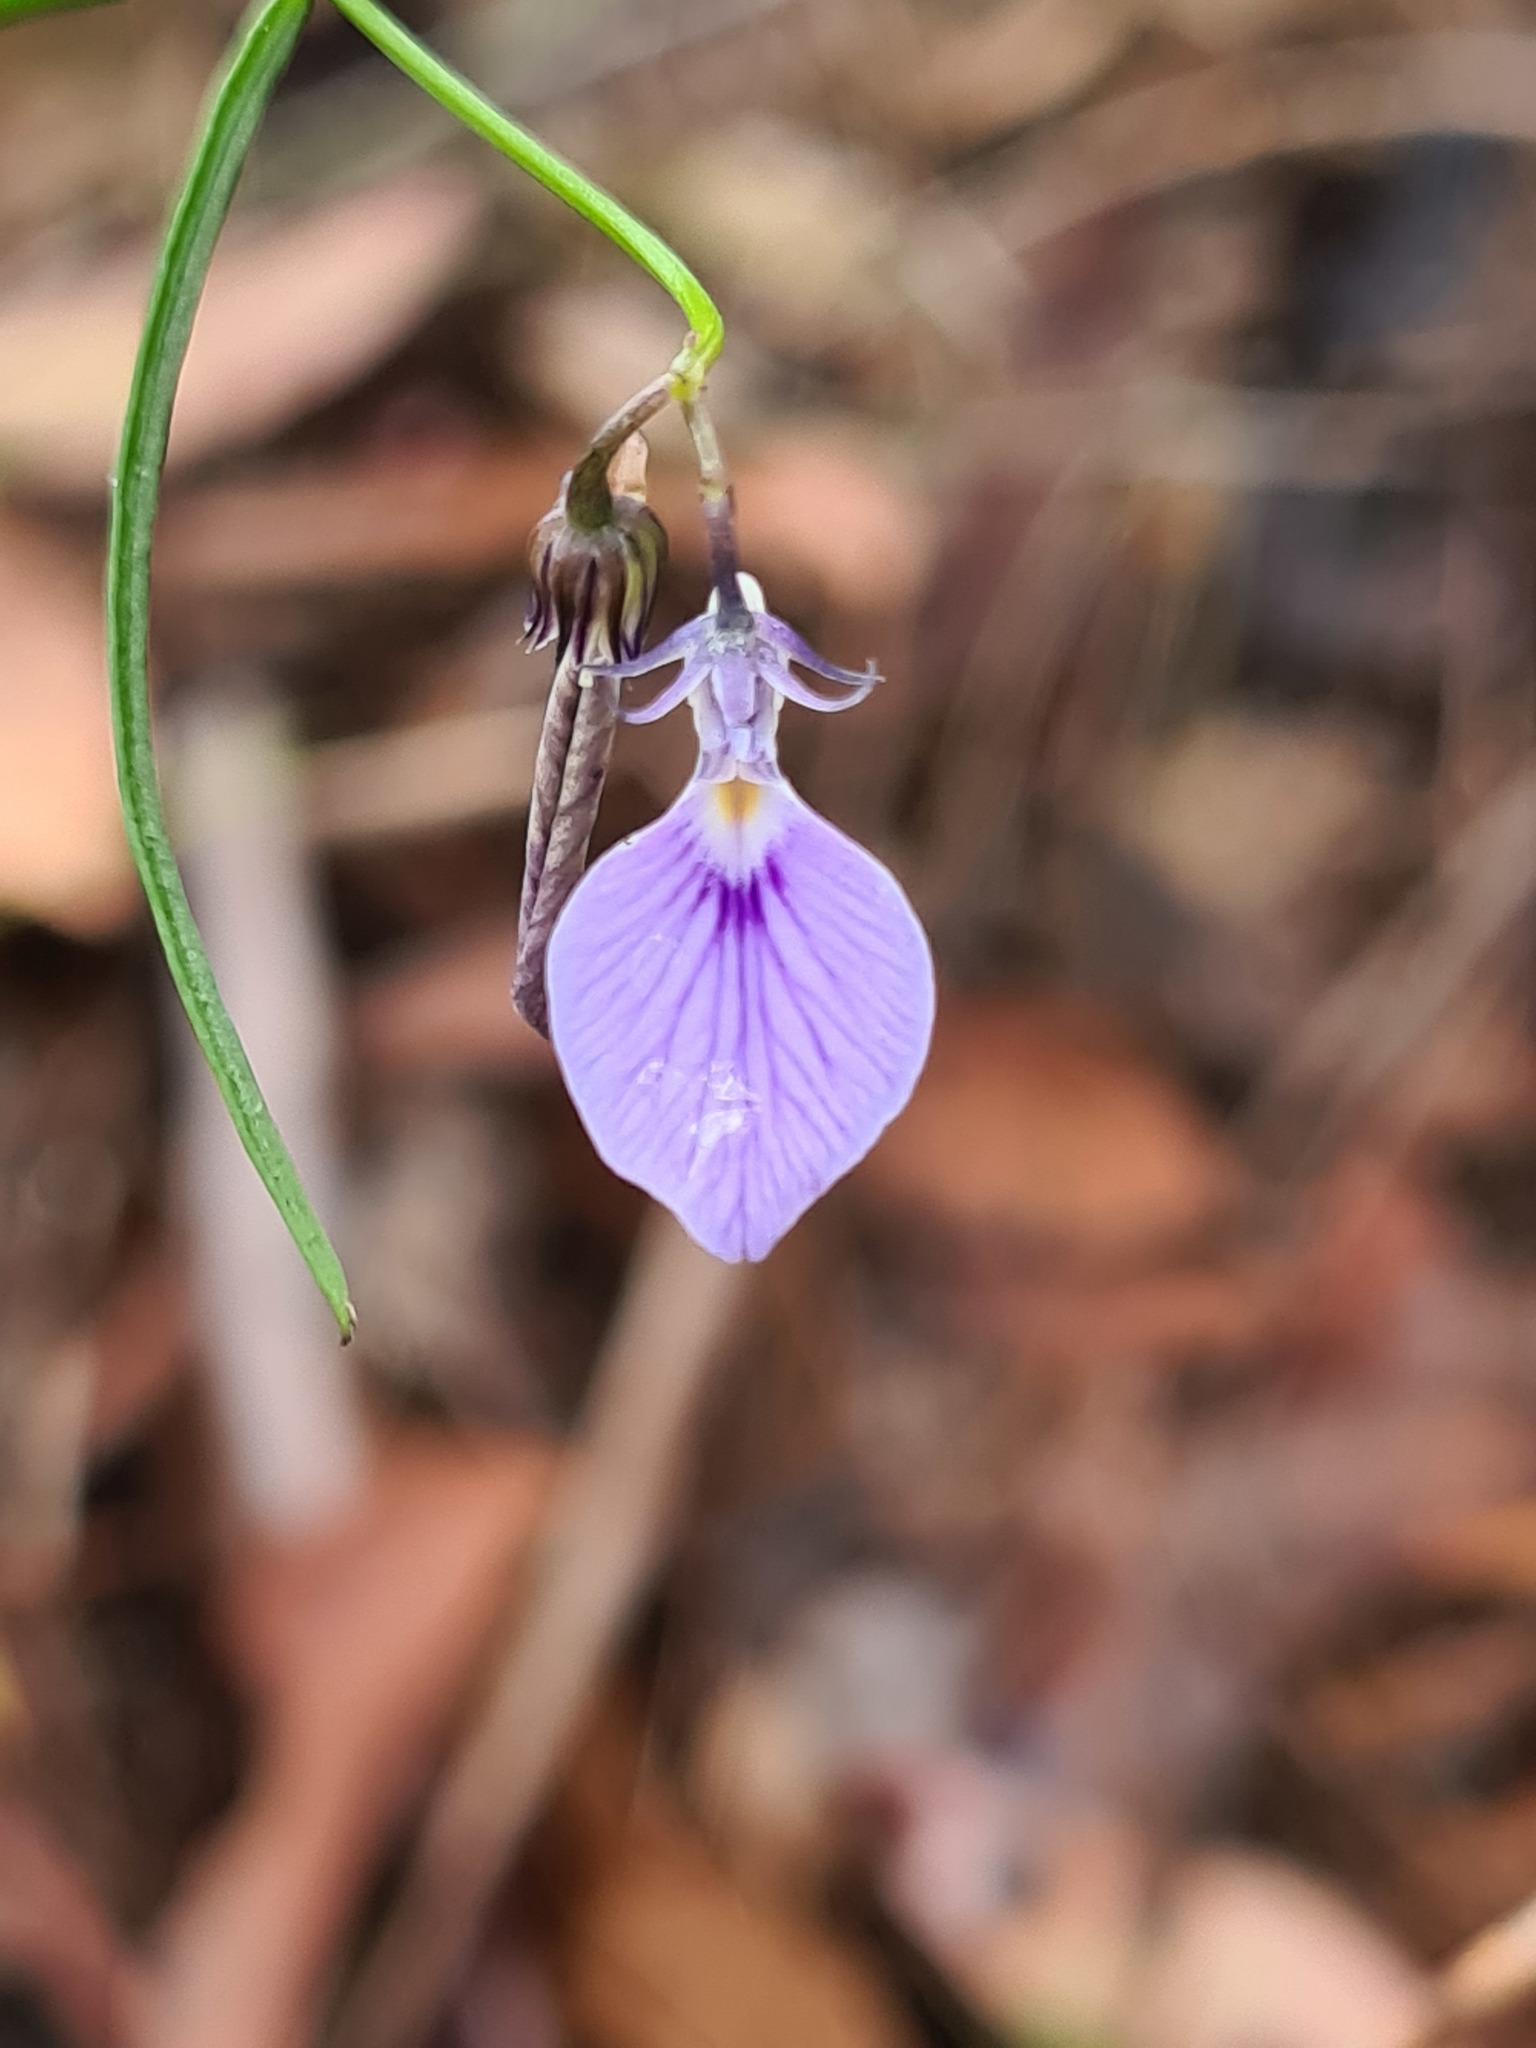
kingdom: Plantae
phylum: Tracheophyta
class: Magnoliopsida
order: Malpighiales
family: Violaceae
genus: Pigea
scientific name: Pigea vernonii
